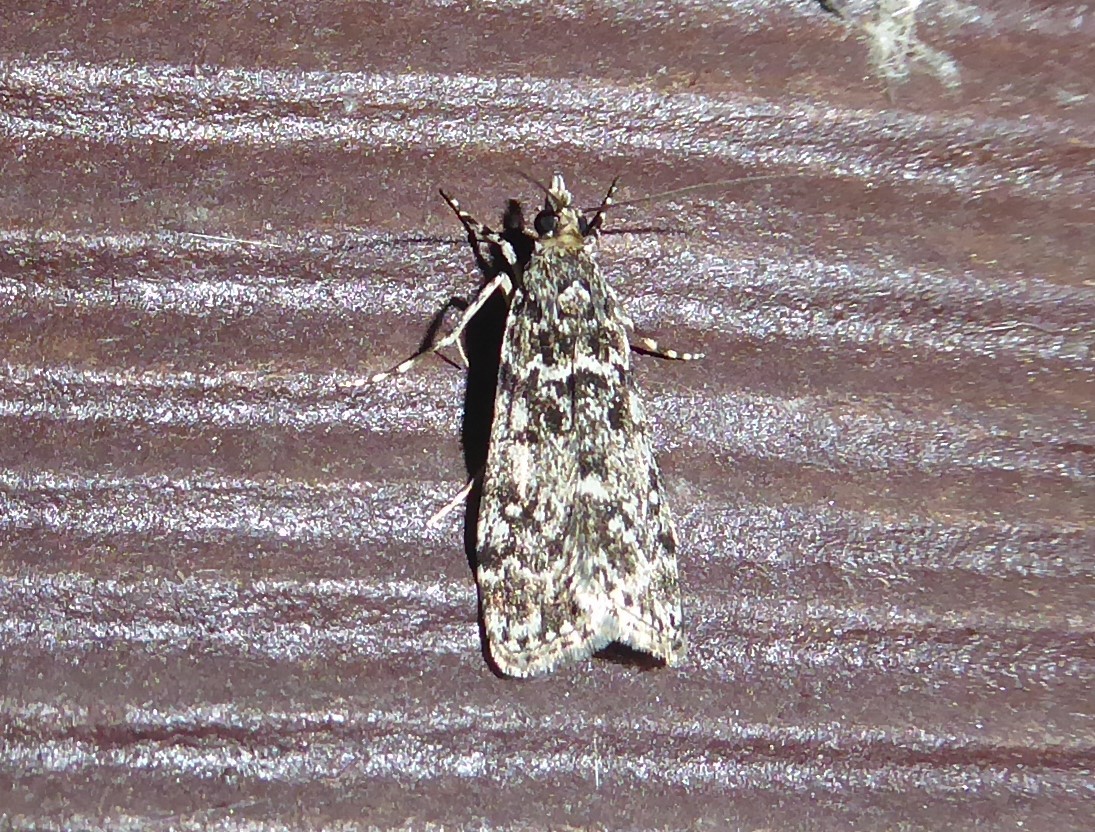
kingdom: Animalia
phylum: Arthropoda
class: Insecta
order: Lepidoptera
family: Crambidae
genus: Eudonia
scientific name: Eudonia philerga
